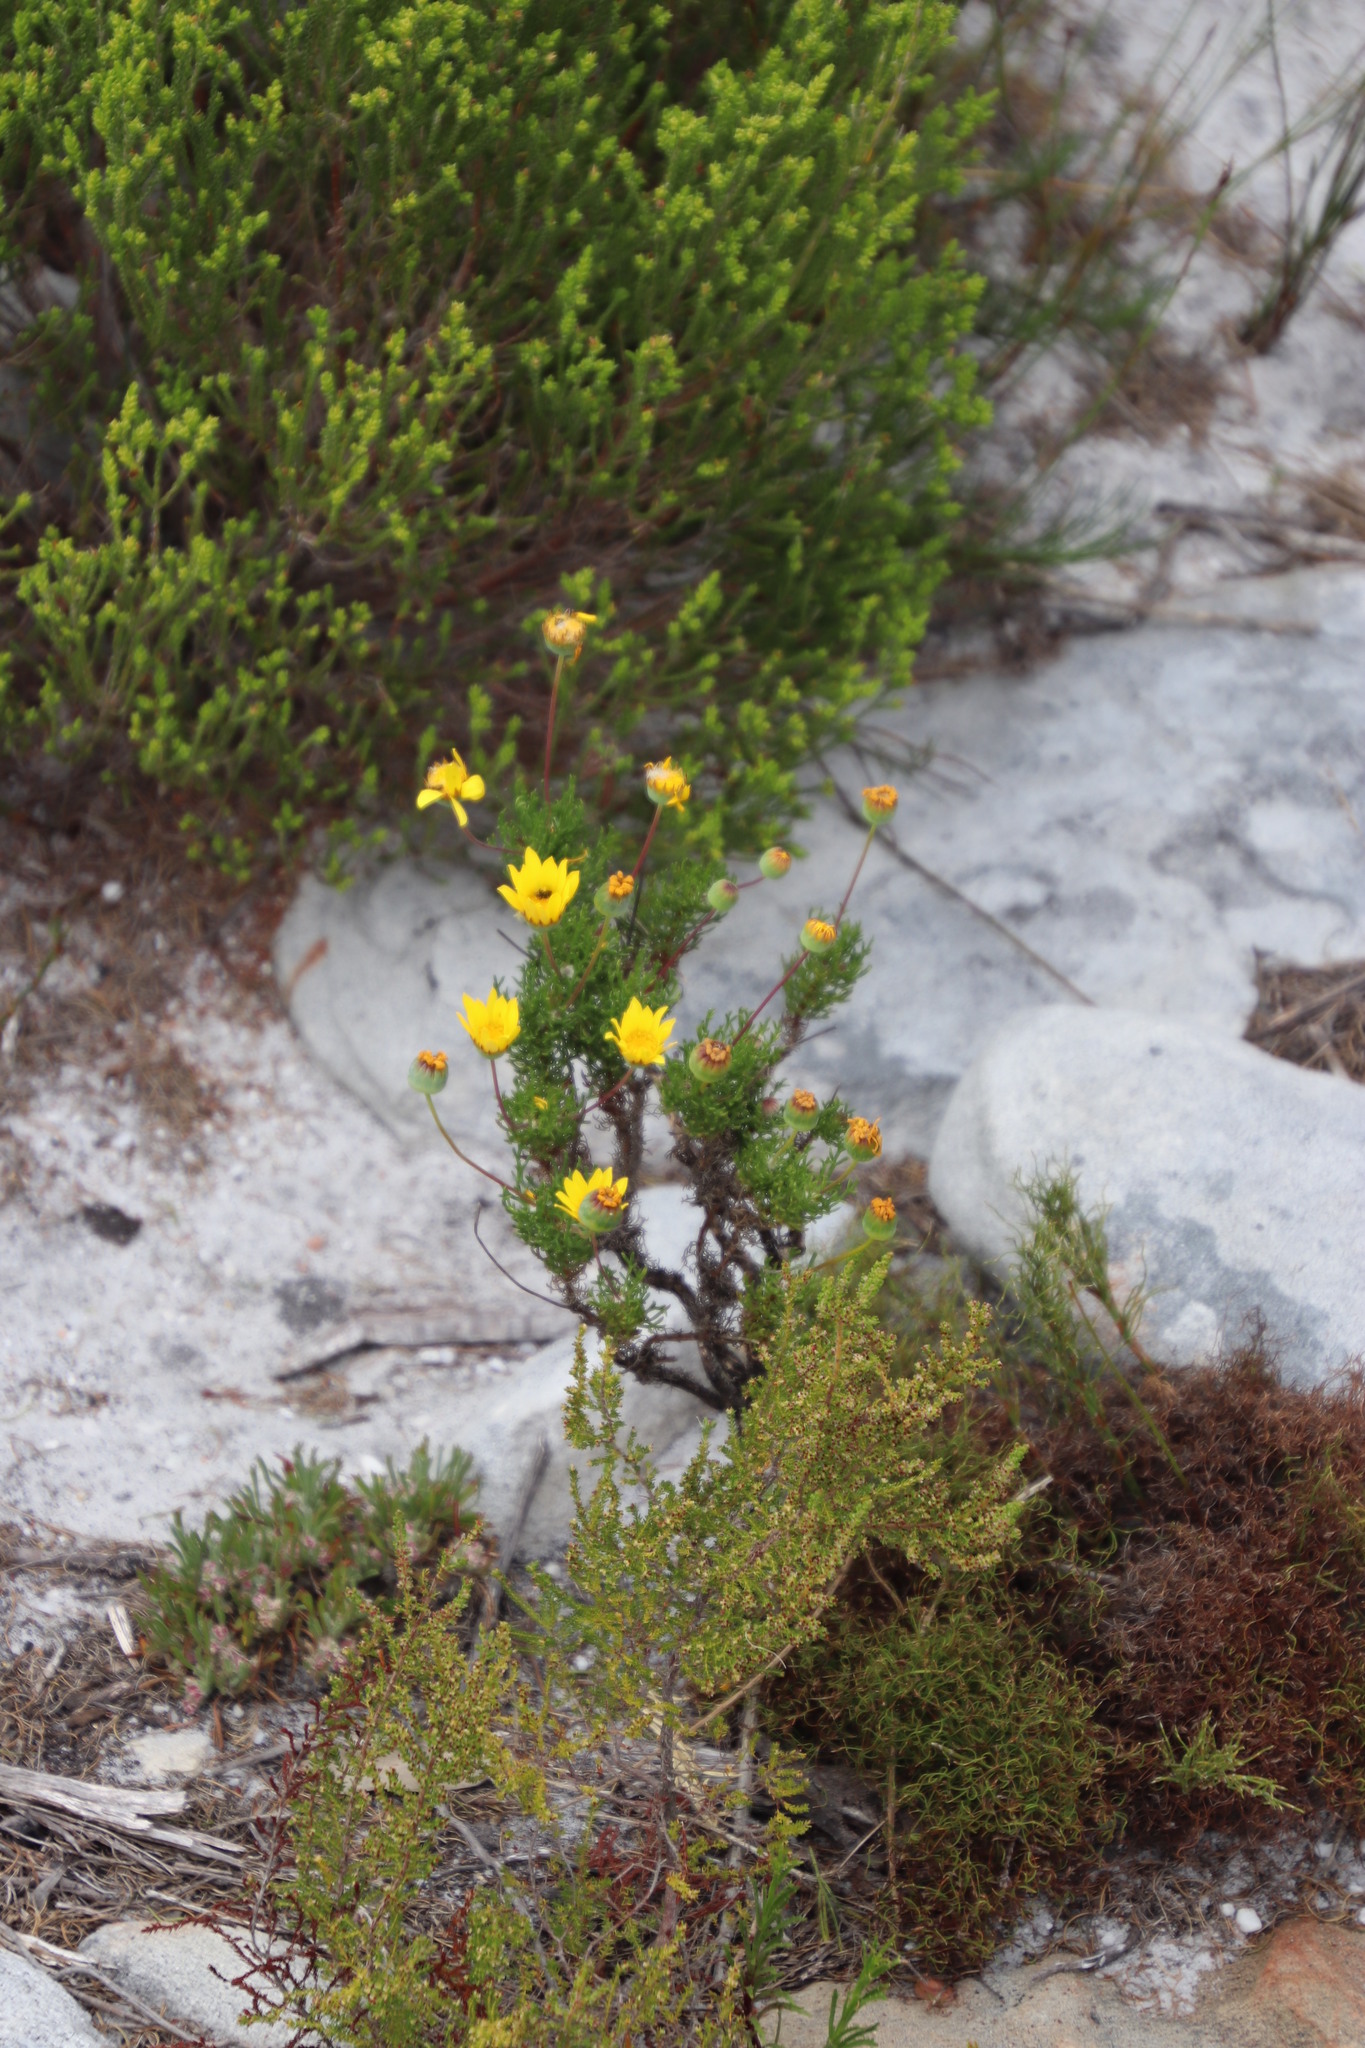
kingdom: Plantae
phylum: Tracheophyta
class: Magnoliopsida
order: Asterales
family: Asteraceae
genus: Euryops
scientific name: Euryops abrotanifolius
